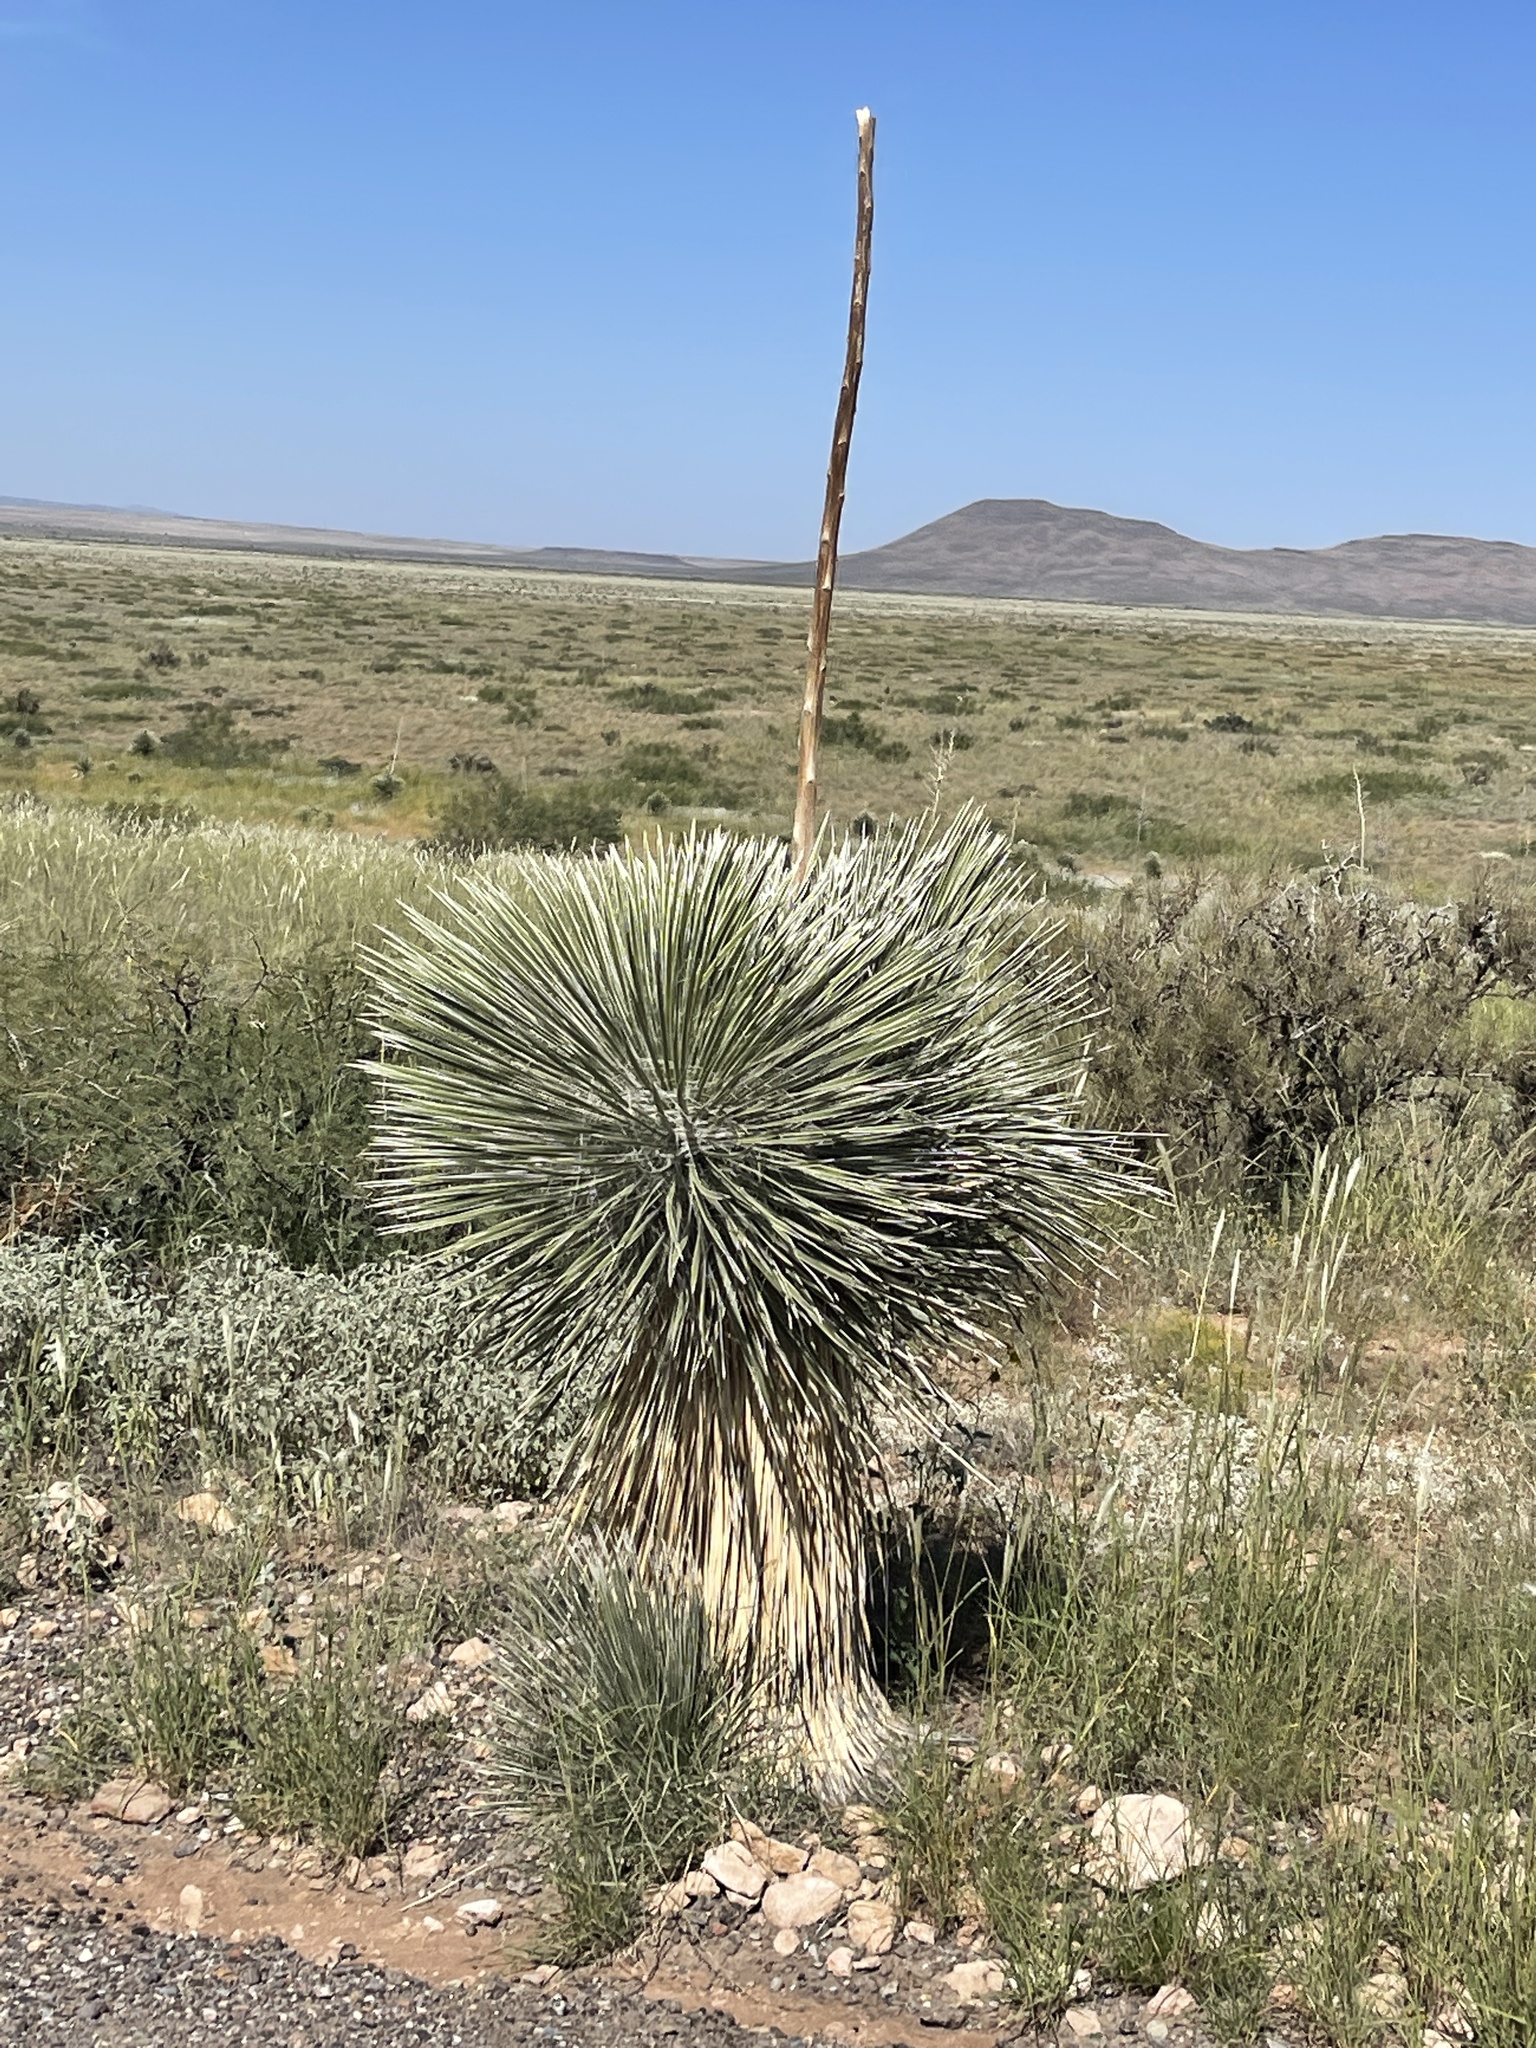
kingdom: Plantae
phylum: Tracheophyta
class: Liliopsida
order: Asparagales
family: Asparagaceae
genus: Yucca
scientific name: Yucca elata
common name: Palmella
